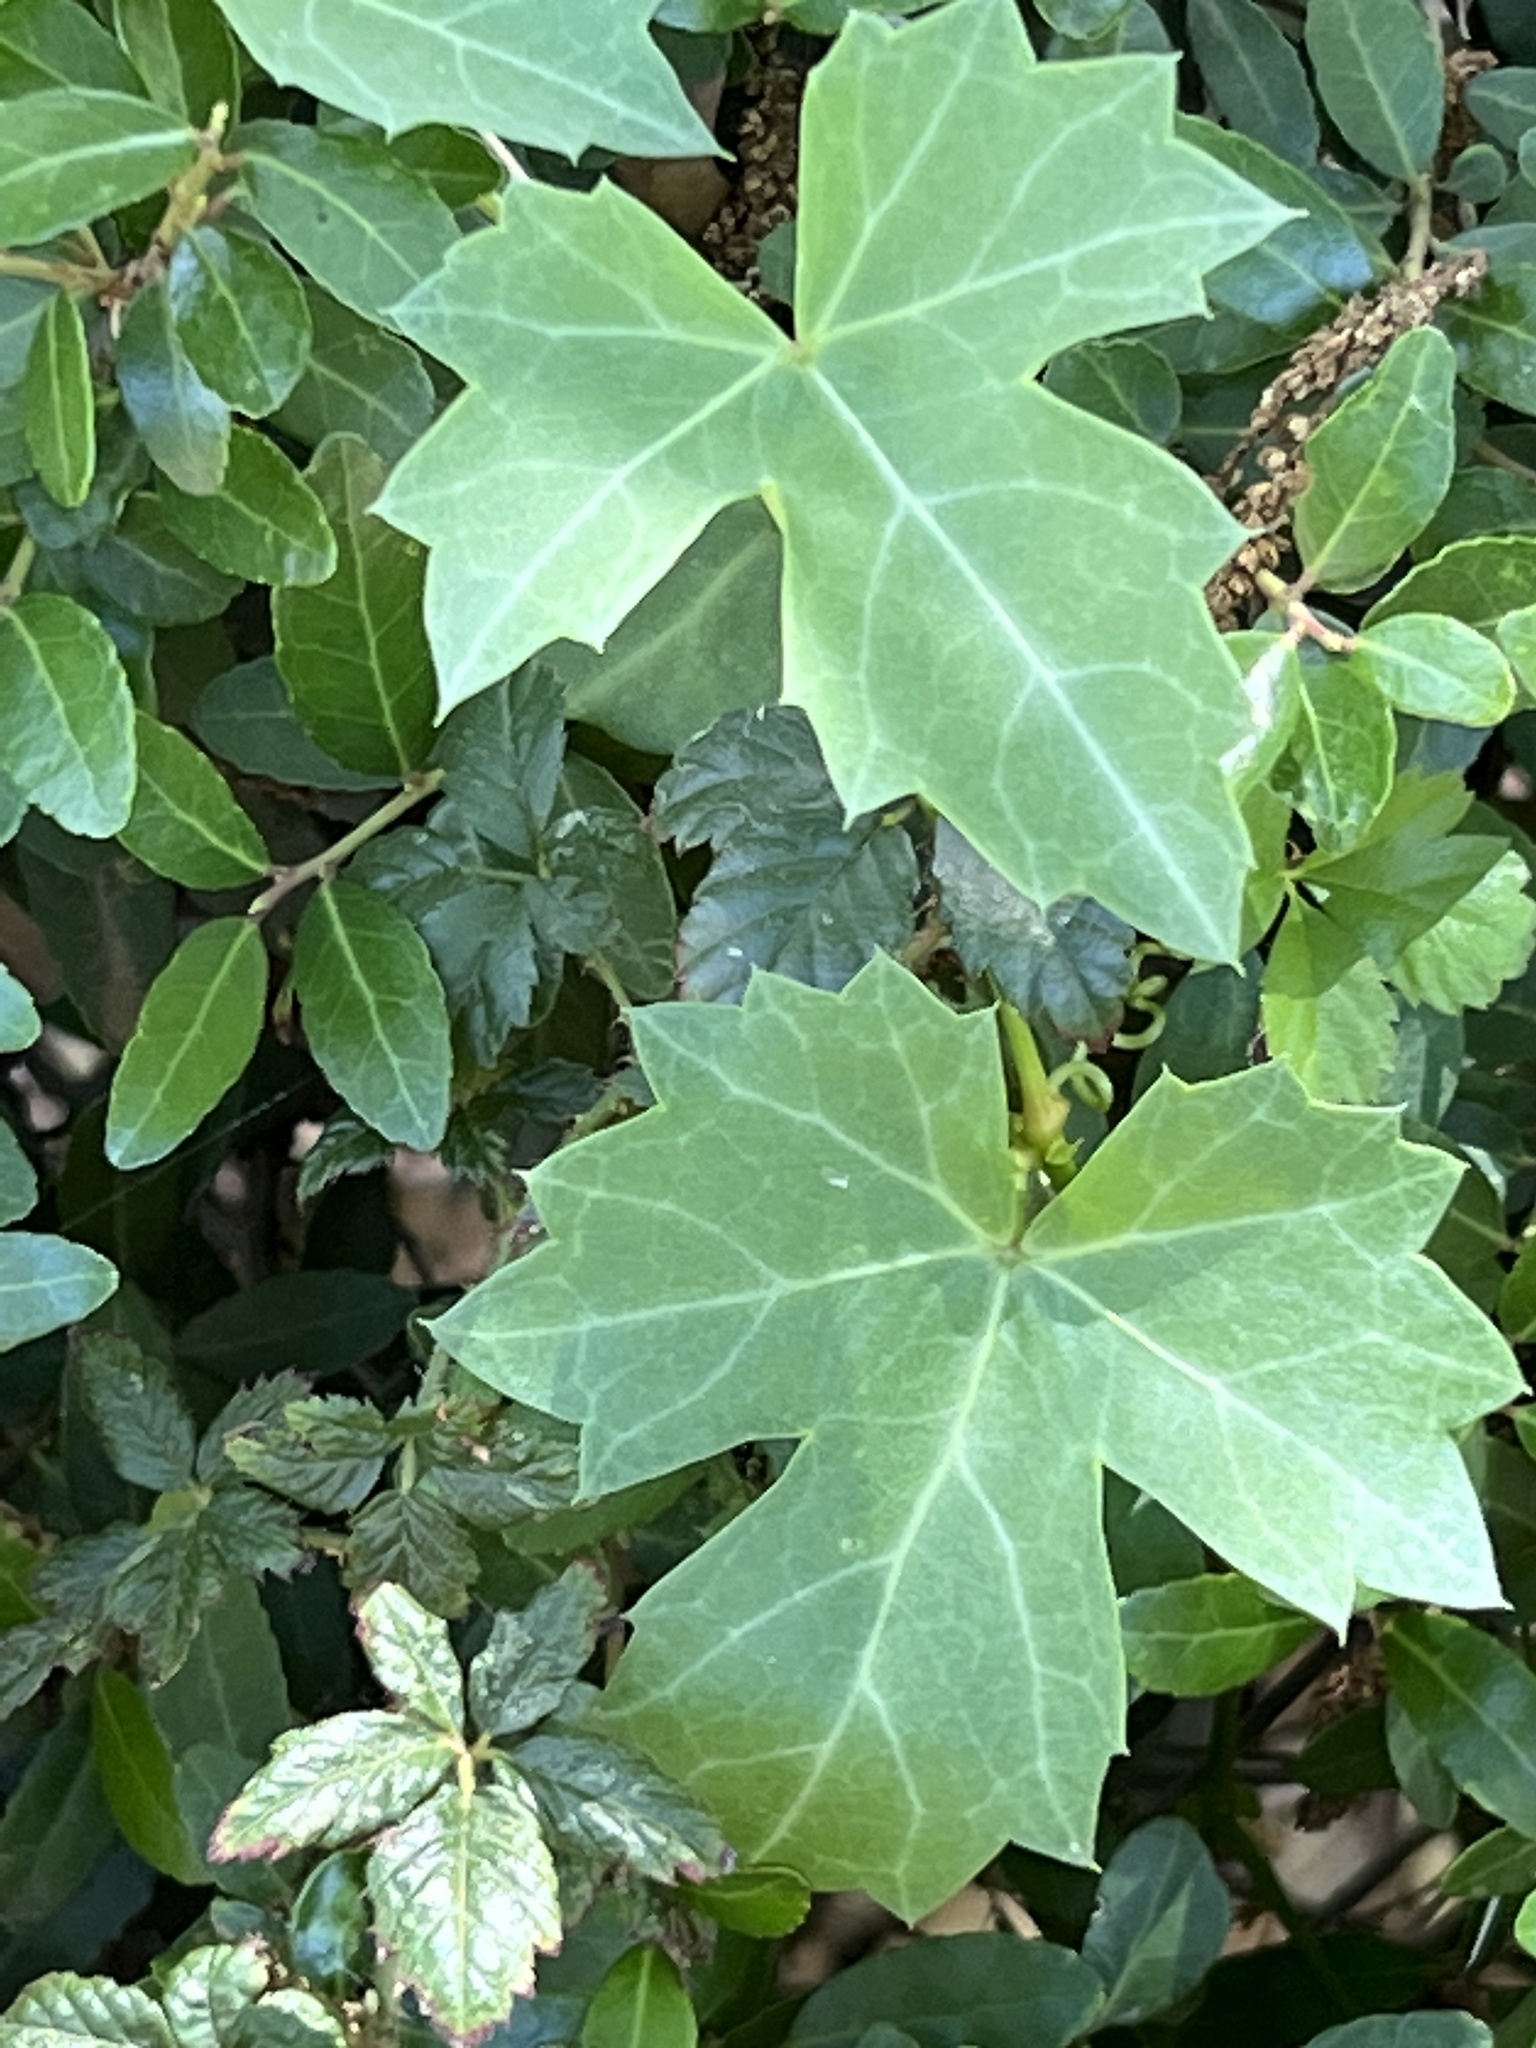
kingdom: Plantae
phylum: Tracheophyta
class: Magnoliopsida
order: Vitales
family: Vitaceae
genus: Cissus
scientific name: Cissus trifoliata
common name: Vine-sorrel
